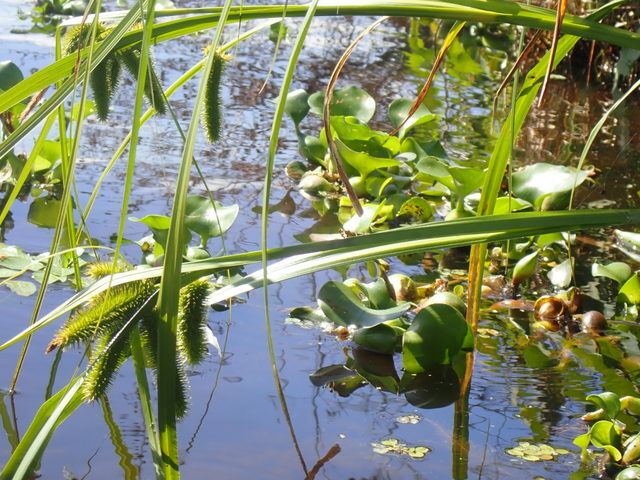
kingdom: Plantae
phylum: Tracheophyta
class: Liliopsida
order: Poales
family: Cyperaceae
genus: Carex
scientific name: Carex comosa
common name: Bristly sedge
